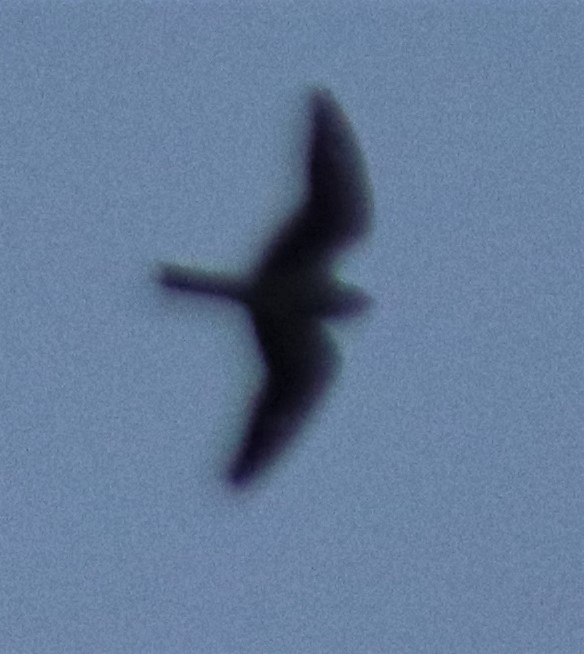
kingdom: Animalia
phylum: Chordata
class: Aves
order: Caprimulgiformes
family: Caprimulgidae
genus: Chordeiles
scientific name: Chordeiles minor
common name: Common nighthawk
